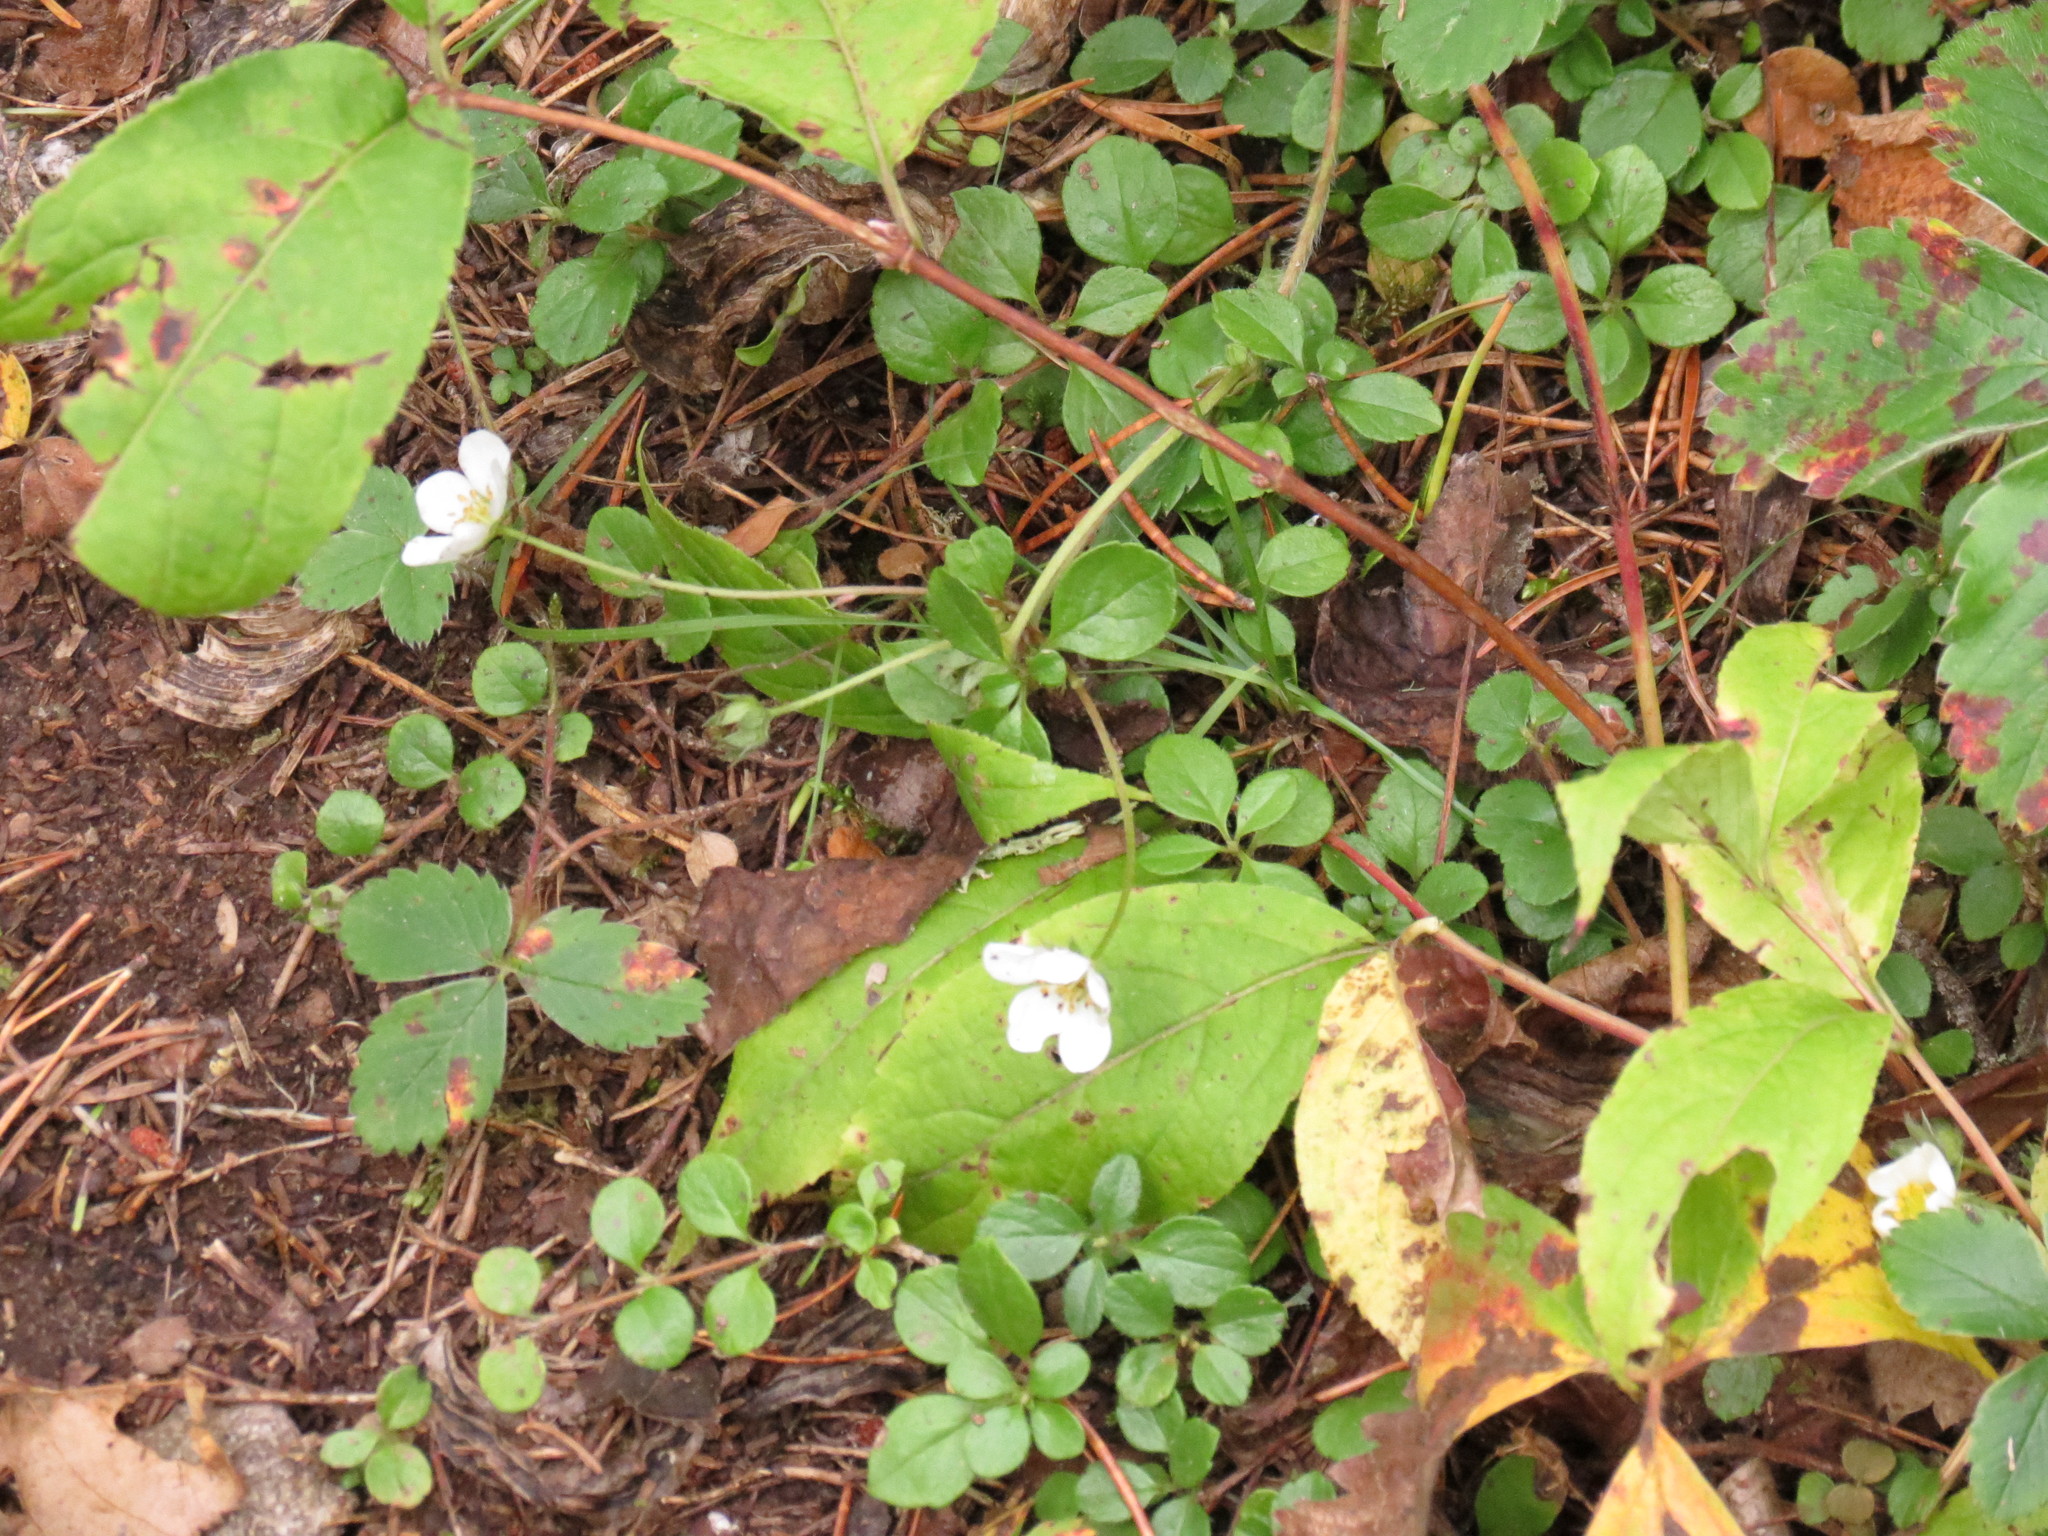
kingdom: Plantae
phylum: Tracheophyta
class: Magnoliopsida
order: Rosales
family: Rosaceae
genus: Fragaria
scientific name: Fragaria virginiana
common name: Thickleaved wild strawberry
